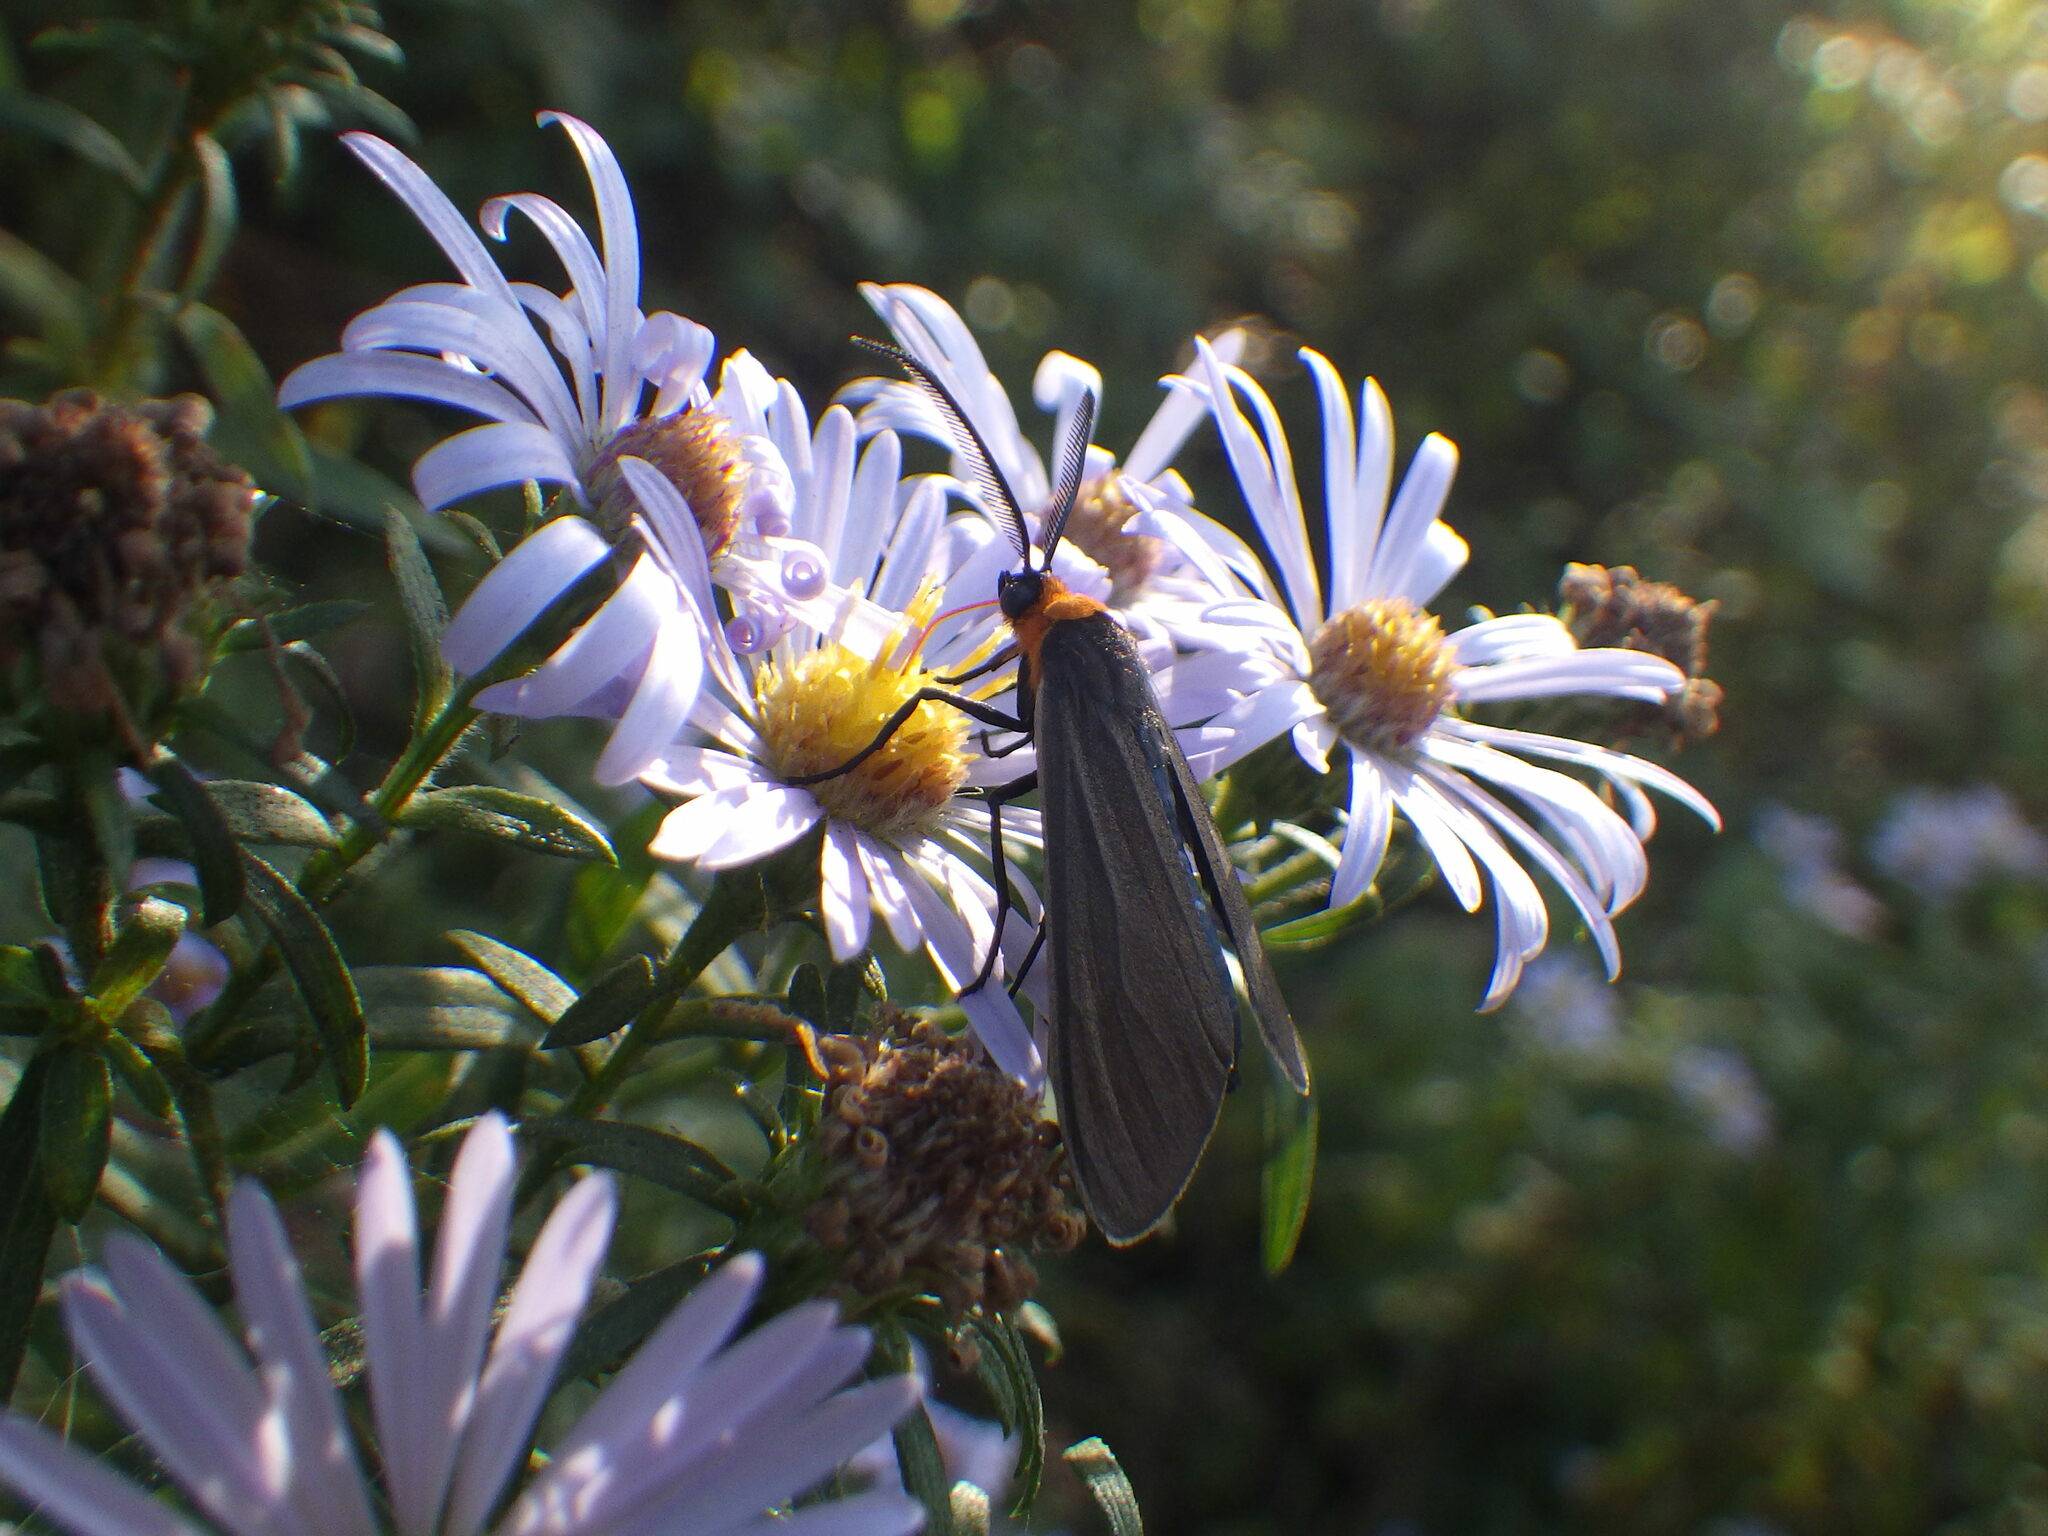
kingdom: Animalia
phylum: Arthropoda
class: Insecta
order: Lepidoptera
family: Erebidae
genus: Cisseps
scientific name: Cisseps fulvicollis
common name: Yellow-collared scape moth
